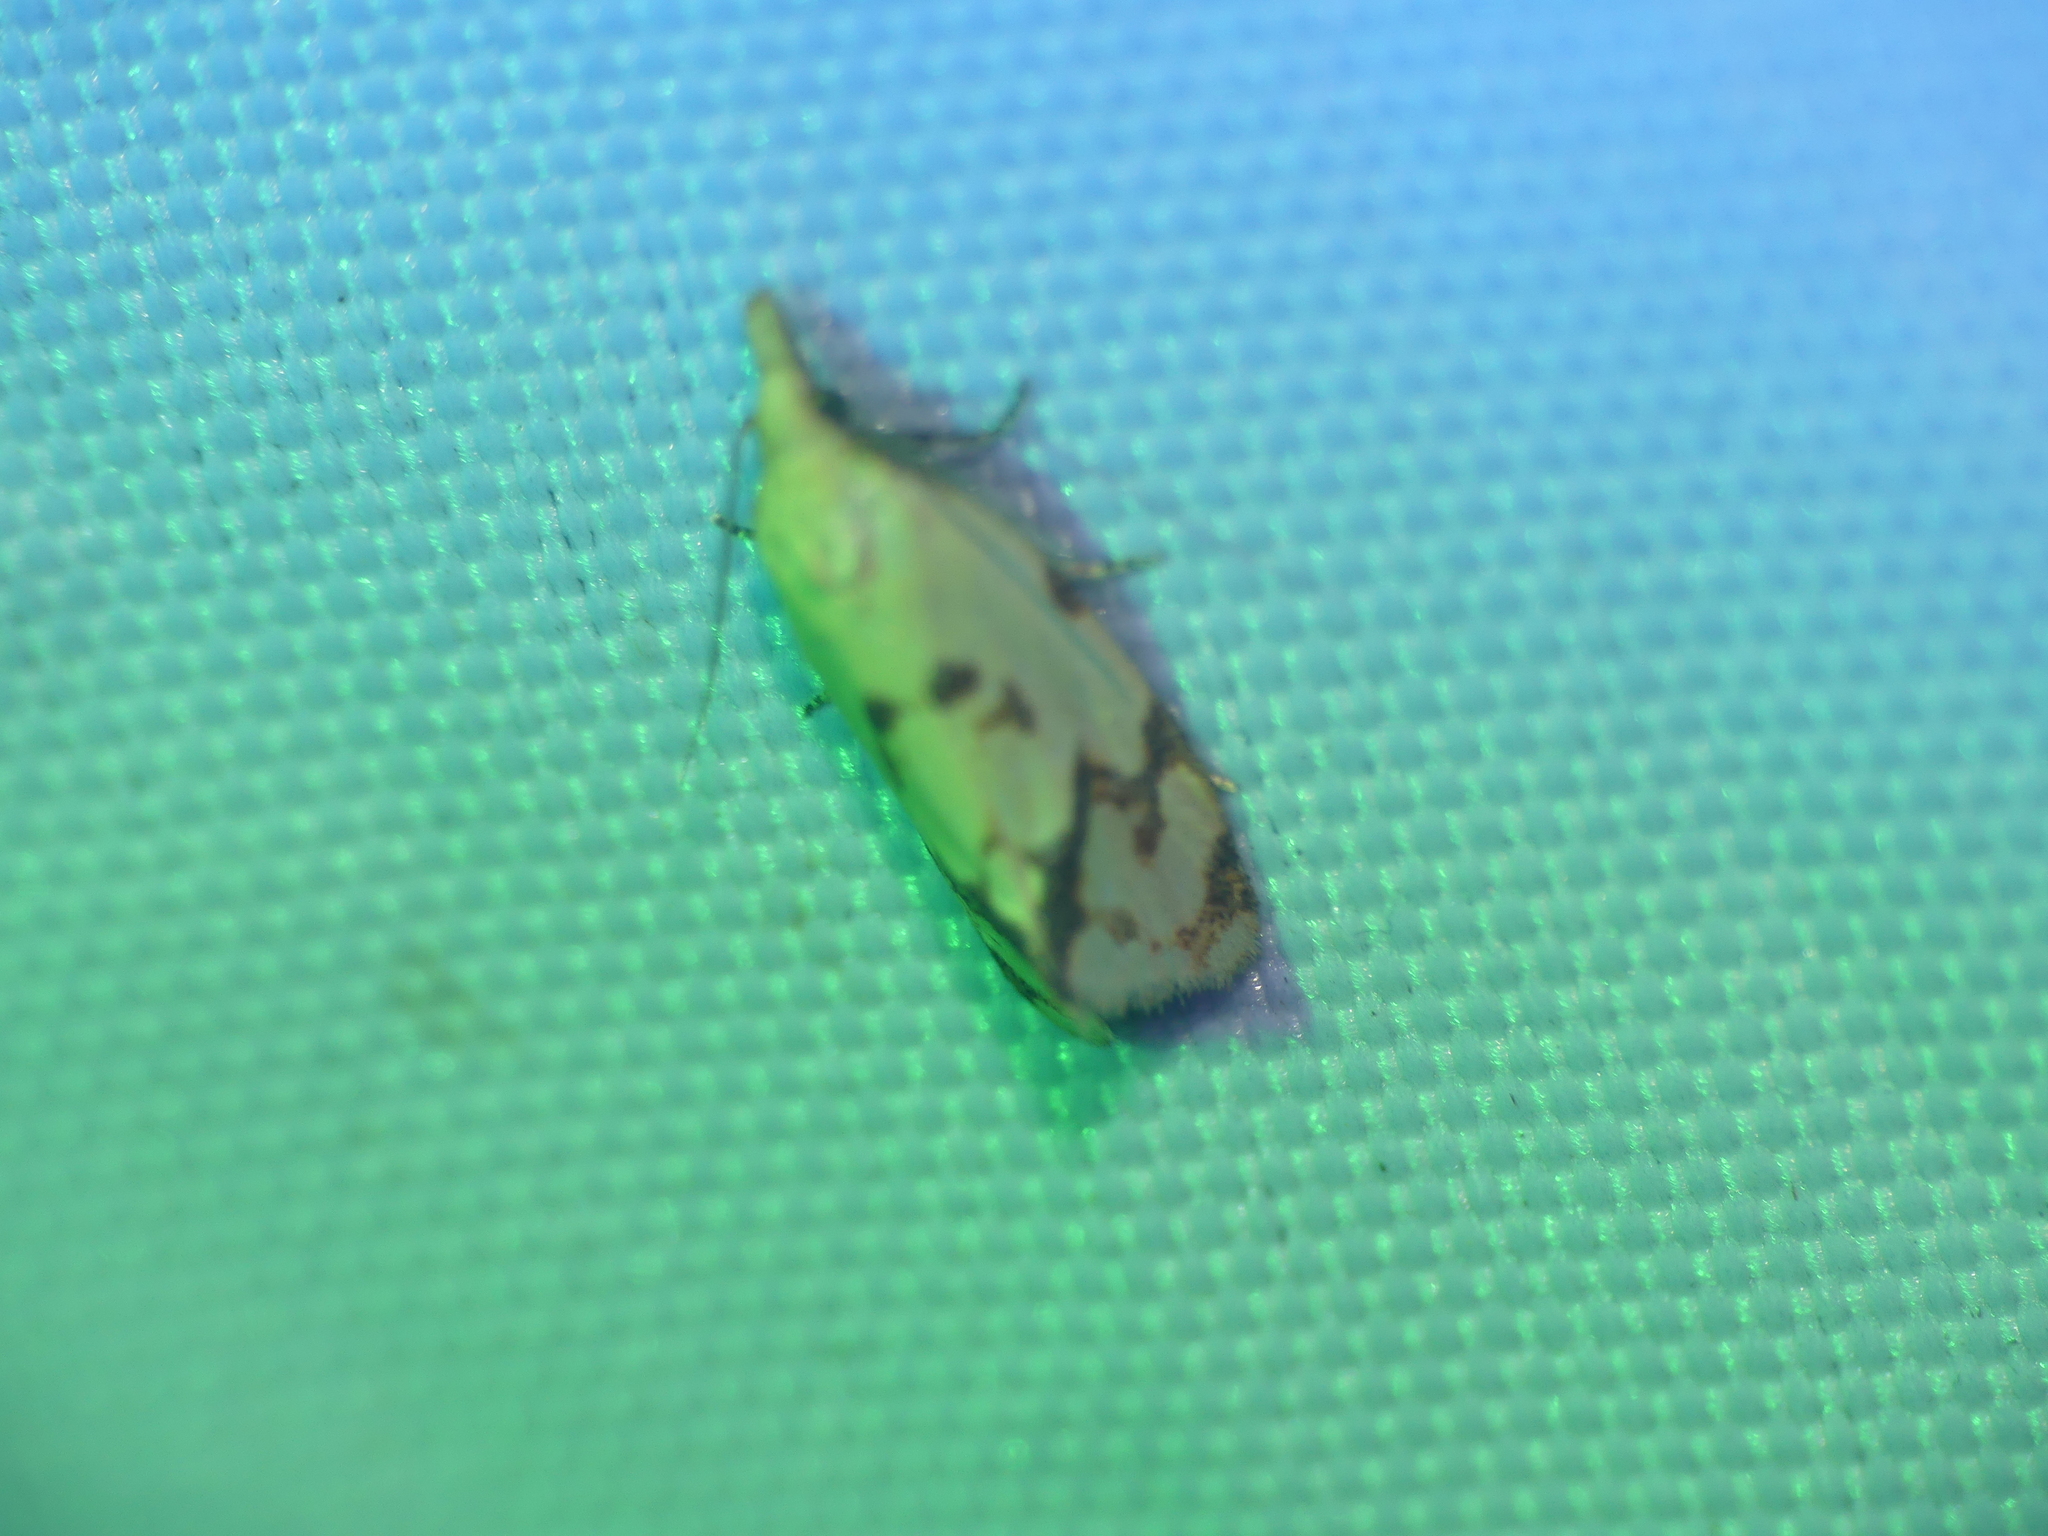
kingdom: Animalia
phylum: Arthropoda
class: Insecta
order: Lepidoptera
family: Tortricidae
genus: Agapeta
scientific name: Agapeta hamana
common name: Common yellow conch
